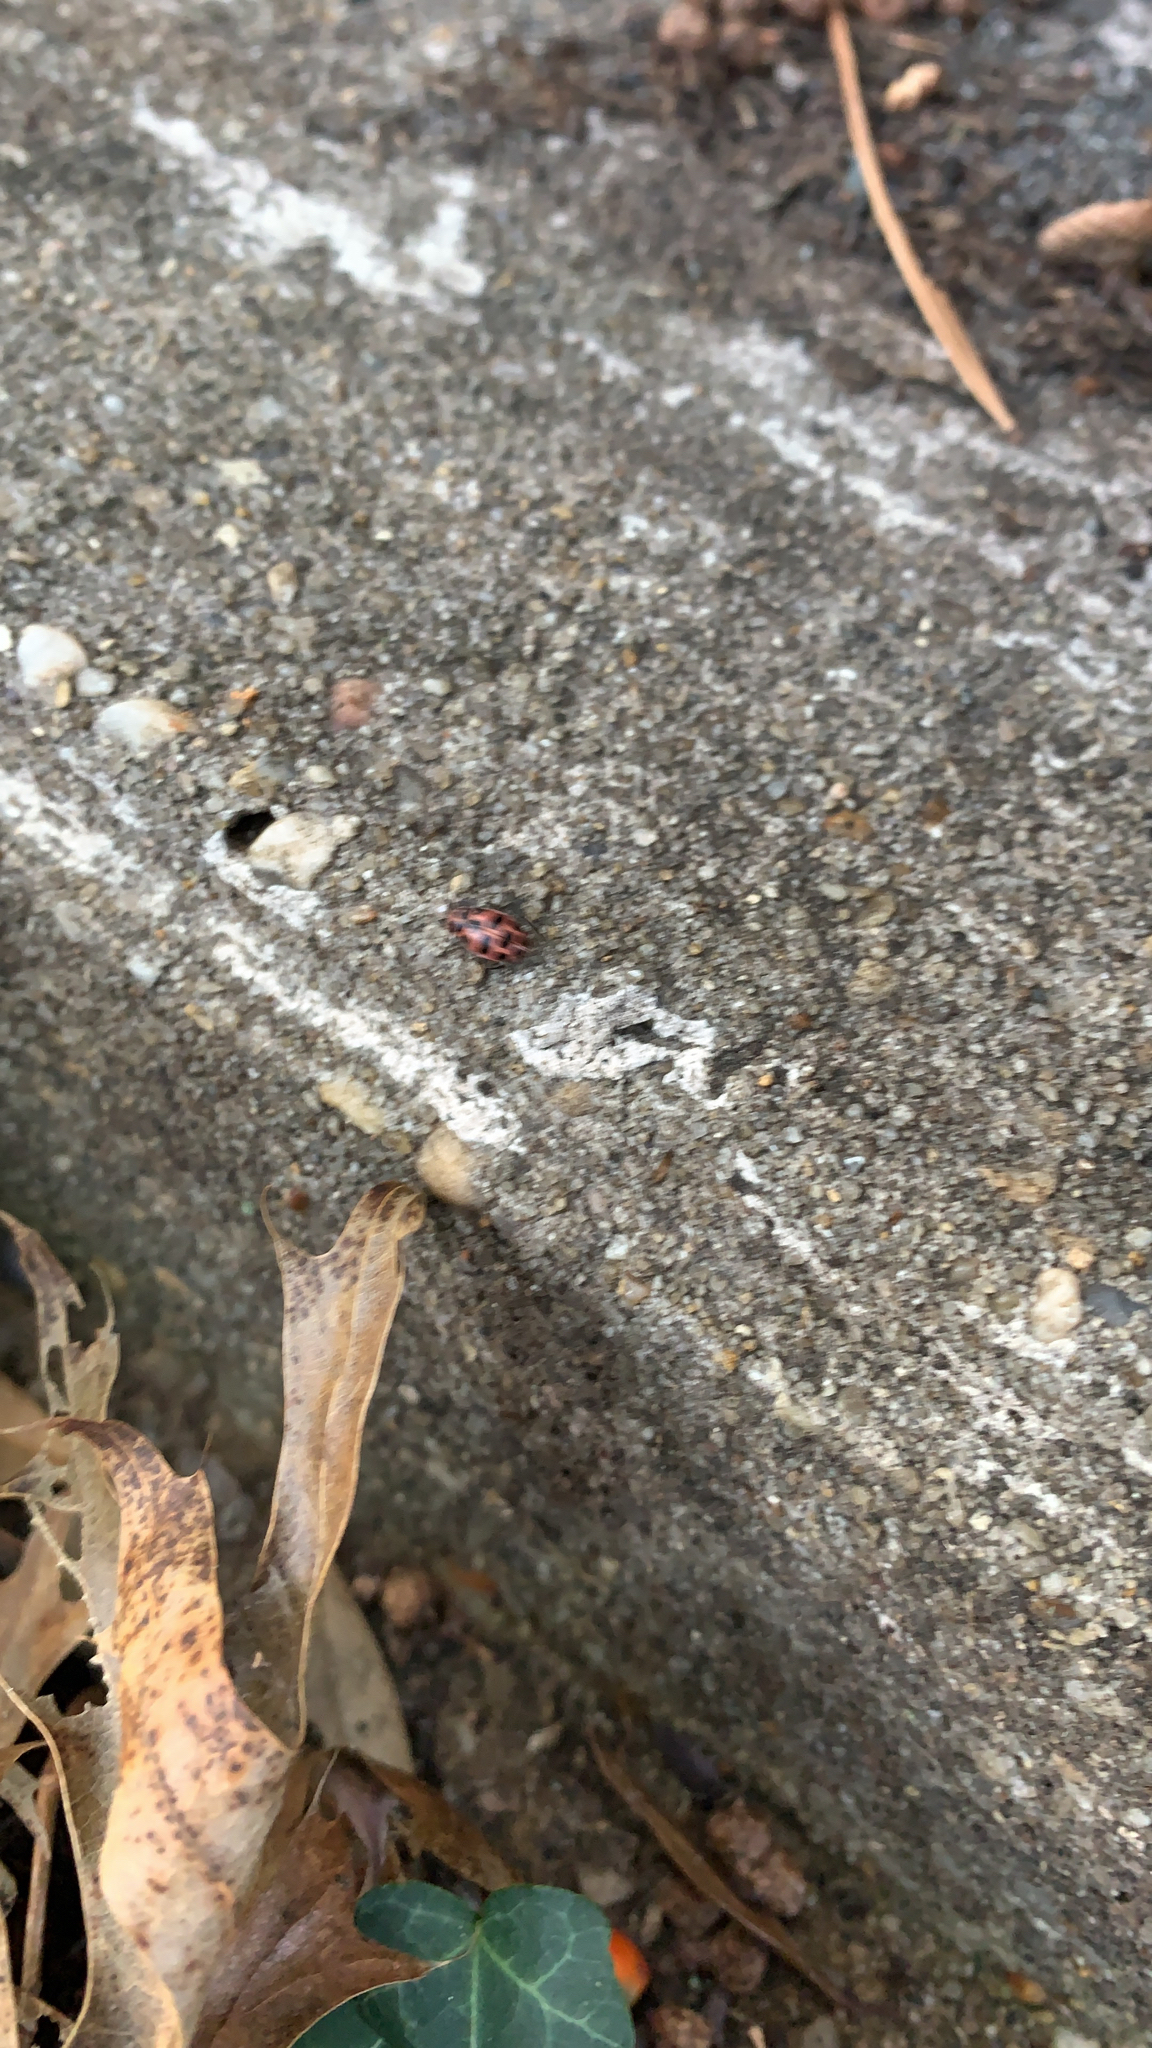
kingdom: Animalia
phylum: Arthropoda
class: Insecta
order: Coleoptera
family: Coccinellidae
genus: Coleomegilla
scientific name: Coleomegilla maculata
